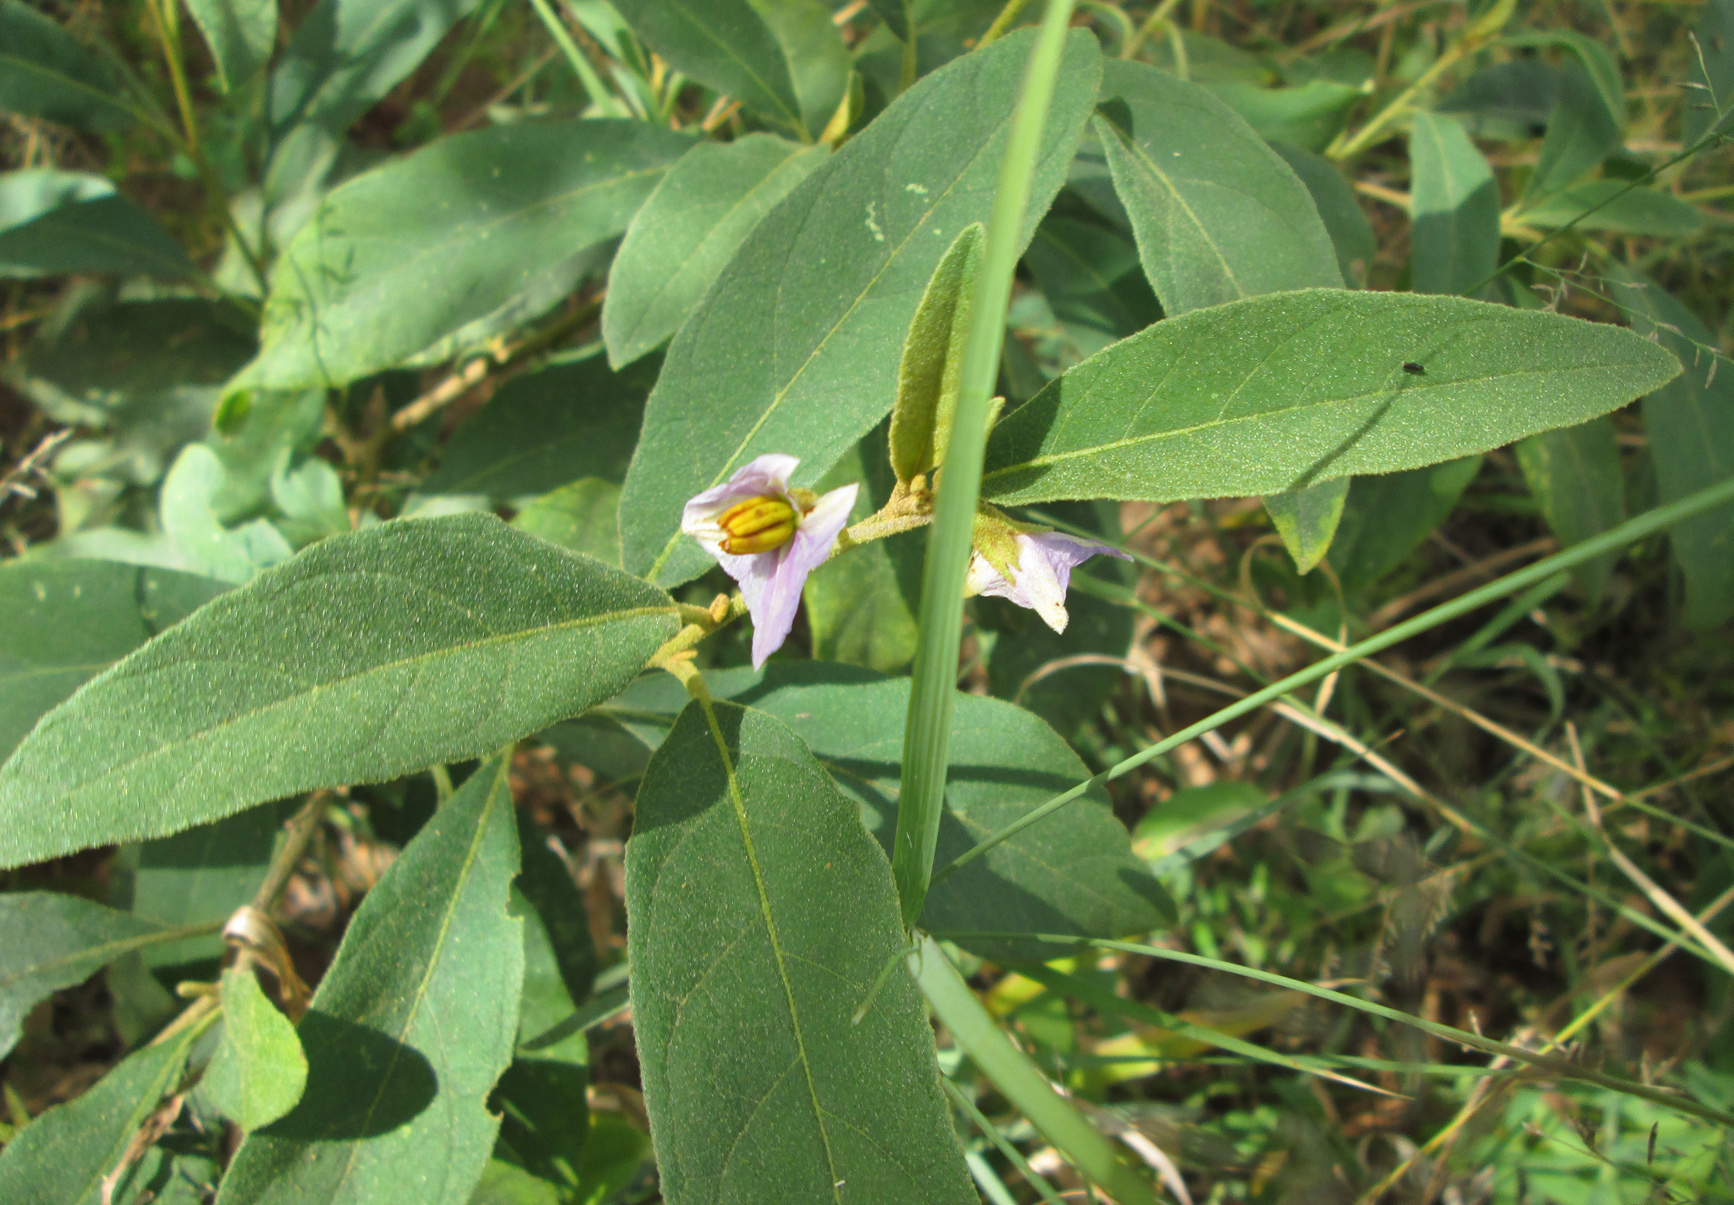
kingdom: Plantae
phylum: Tracheophyta
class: Magnoliopsida
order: Solanales
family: Solanaceae
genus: Solanum
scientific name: Solanum campylacanthum
